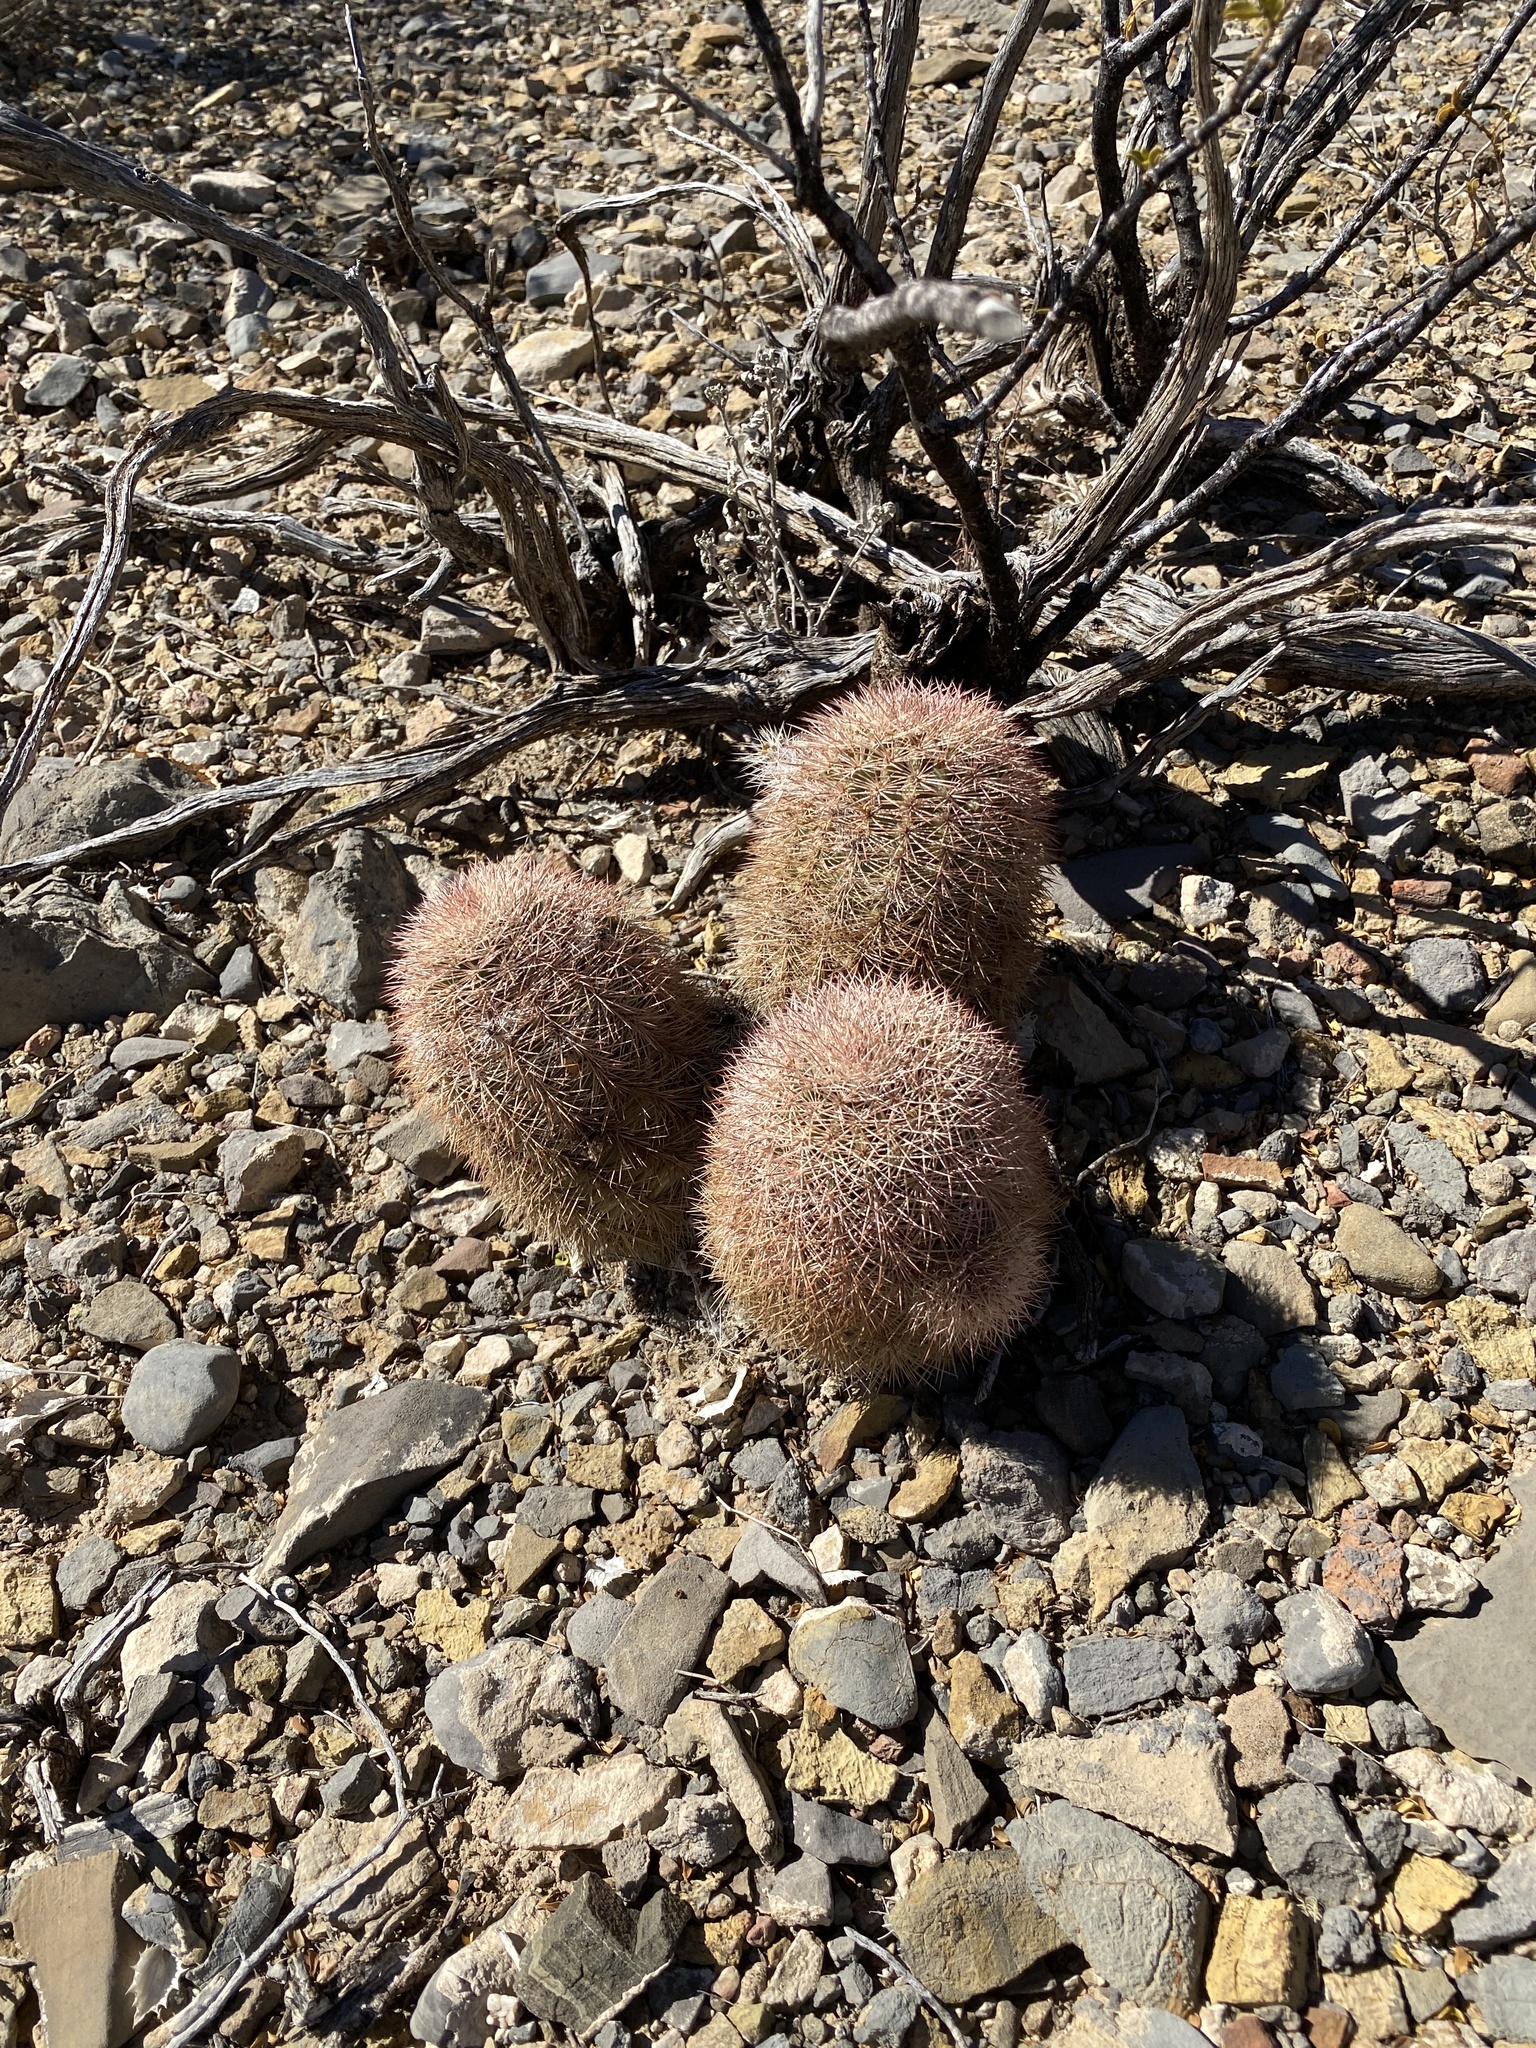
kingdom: Plantae
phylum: Tracheophyta
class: Magnoliopsida
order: Caryophyllales
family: Cactaceae
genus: Echinocereus
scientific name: Echinocereus dasyacanthus
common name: Spiny hedgehog cactus
